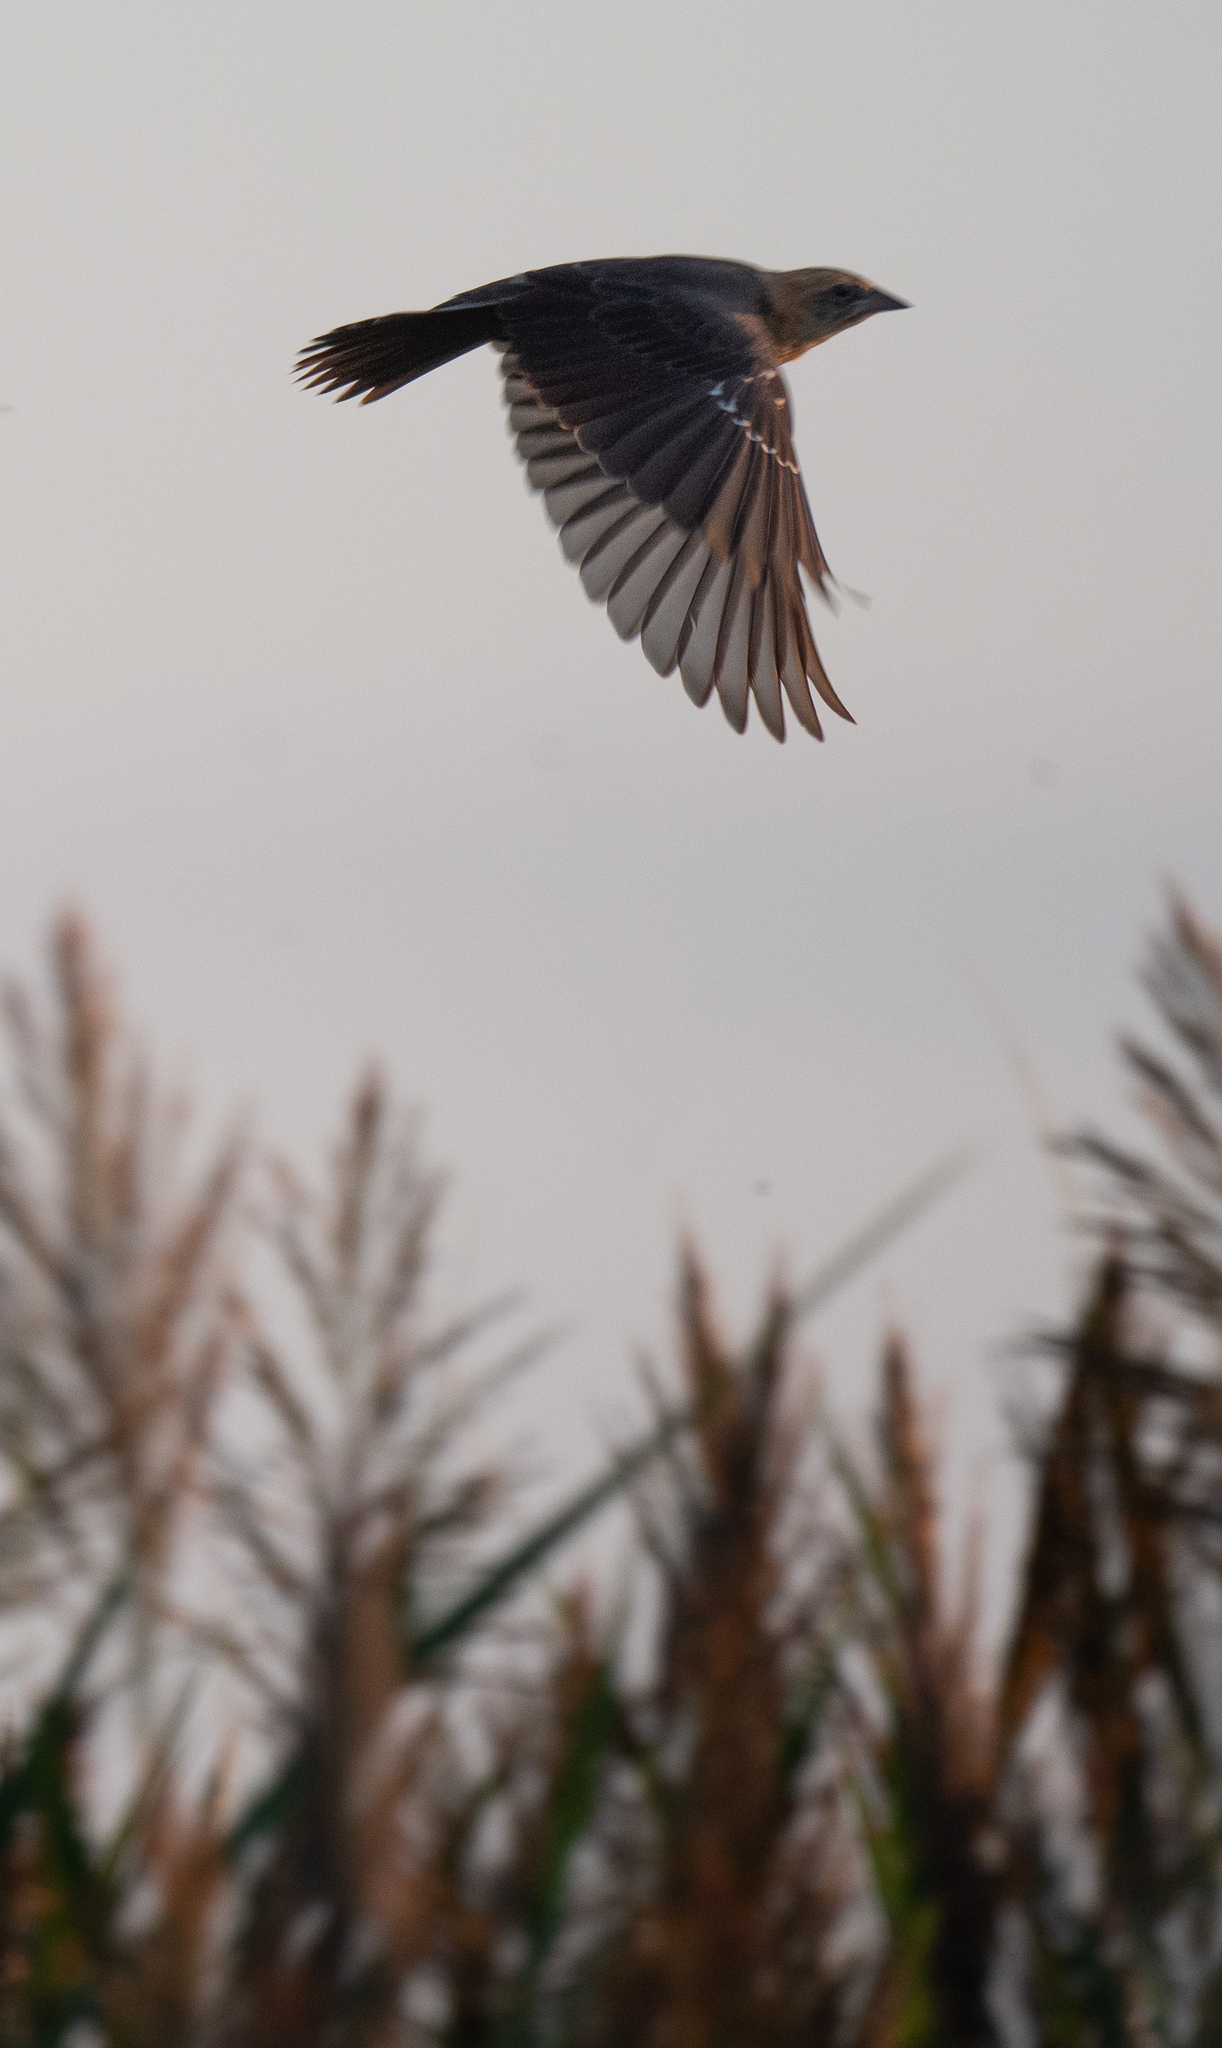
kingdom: Animalia
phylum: Chordata
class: Aves
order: Passeriformes
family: Icteridae
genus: Xanthocephalus
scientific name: Xanthocephalus xanthocephalus
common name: Yellow-headed blackbird
